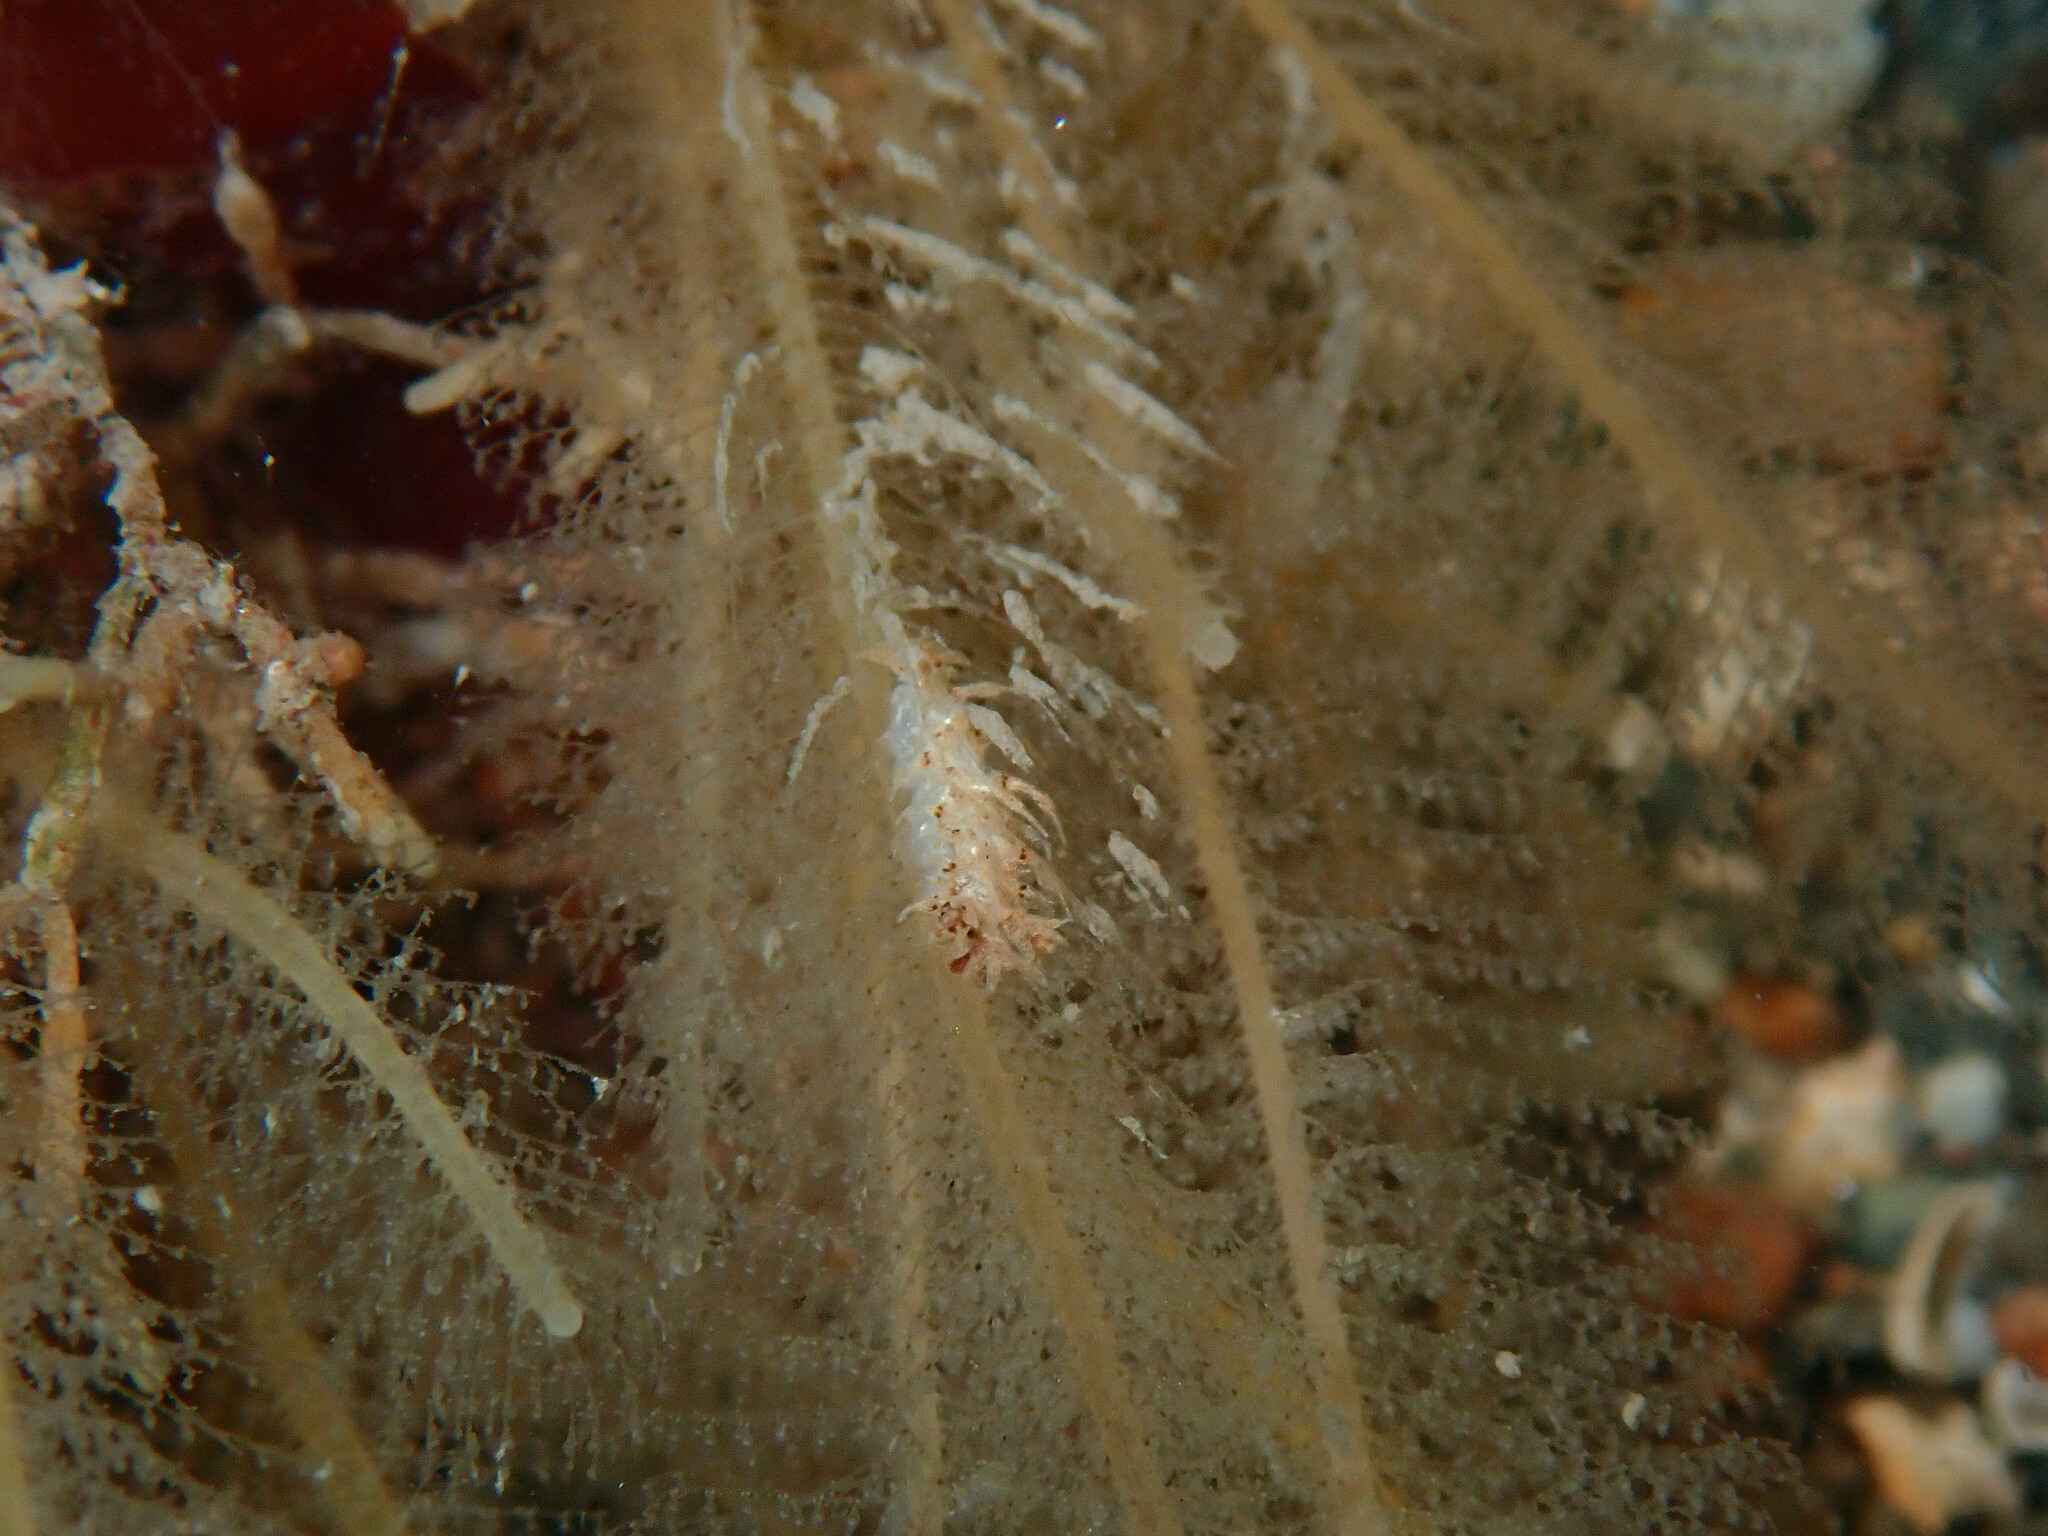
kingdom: Animalia
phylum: Mollusca
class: Gastropoda
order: Nudibranchia
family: Lomanotidae
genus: Lomanotus
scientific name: Lomanotus marmoratus
